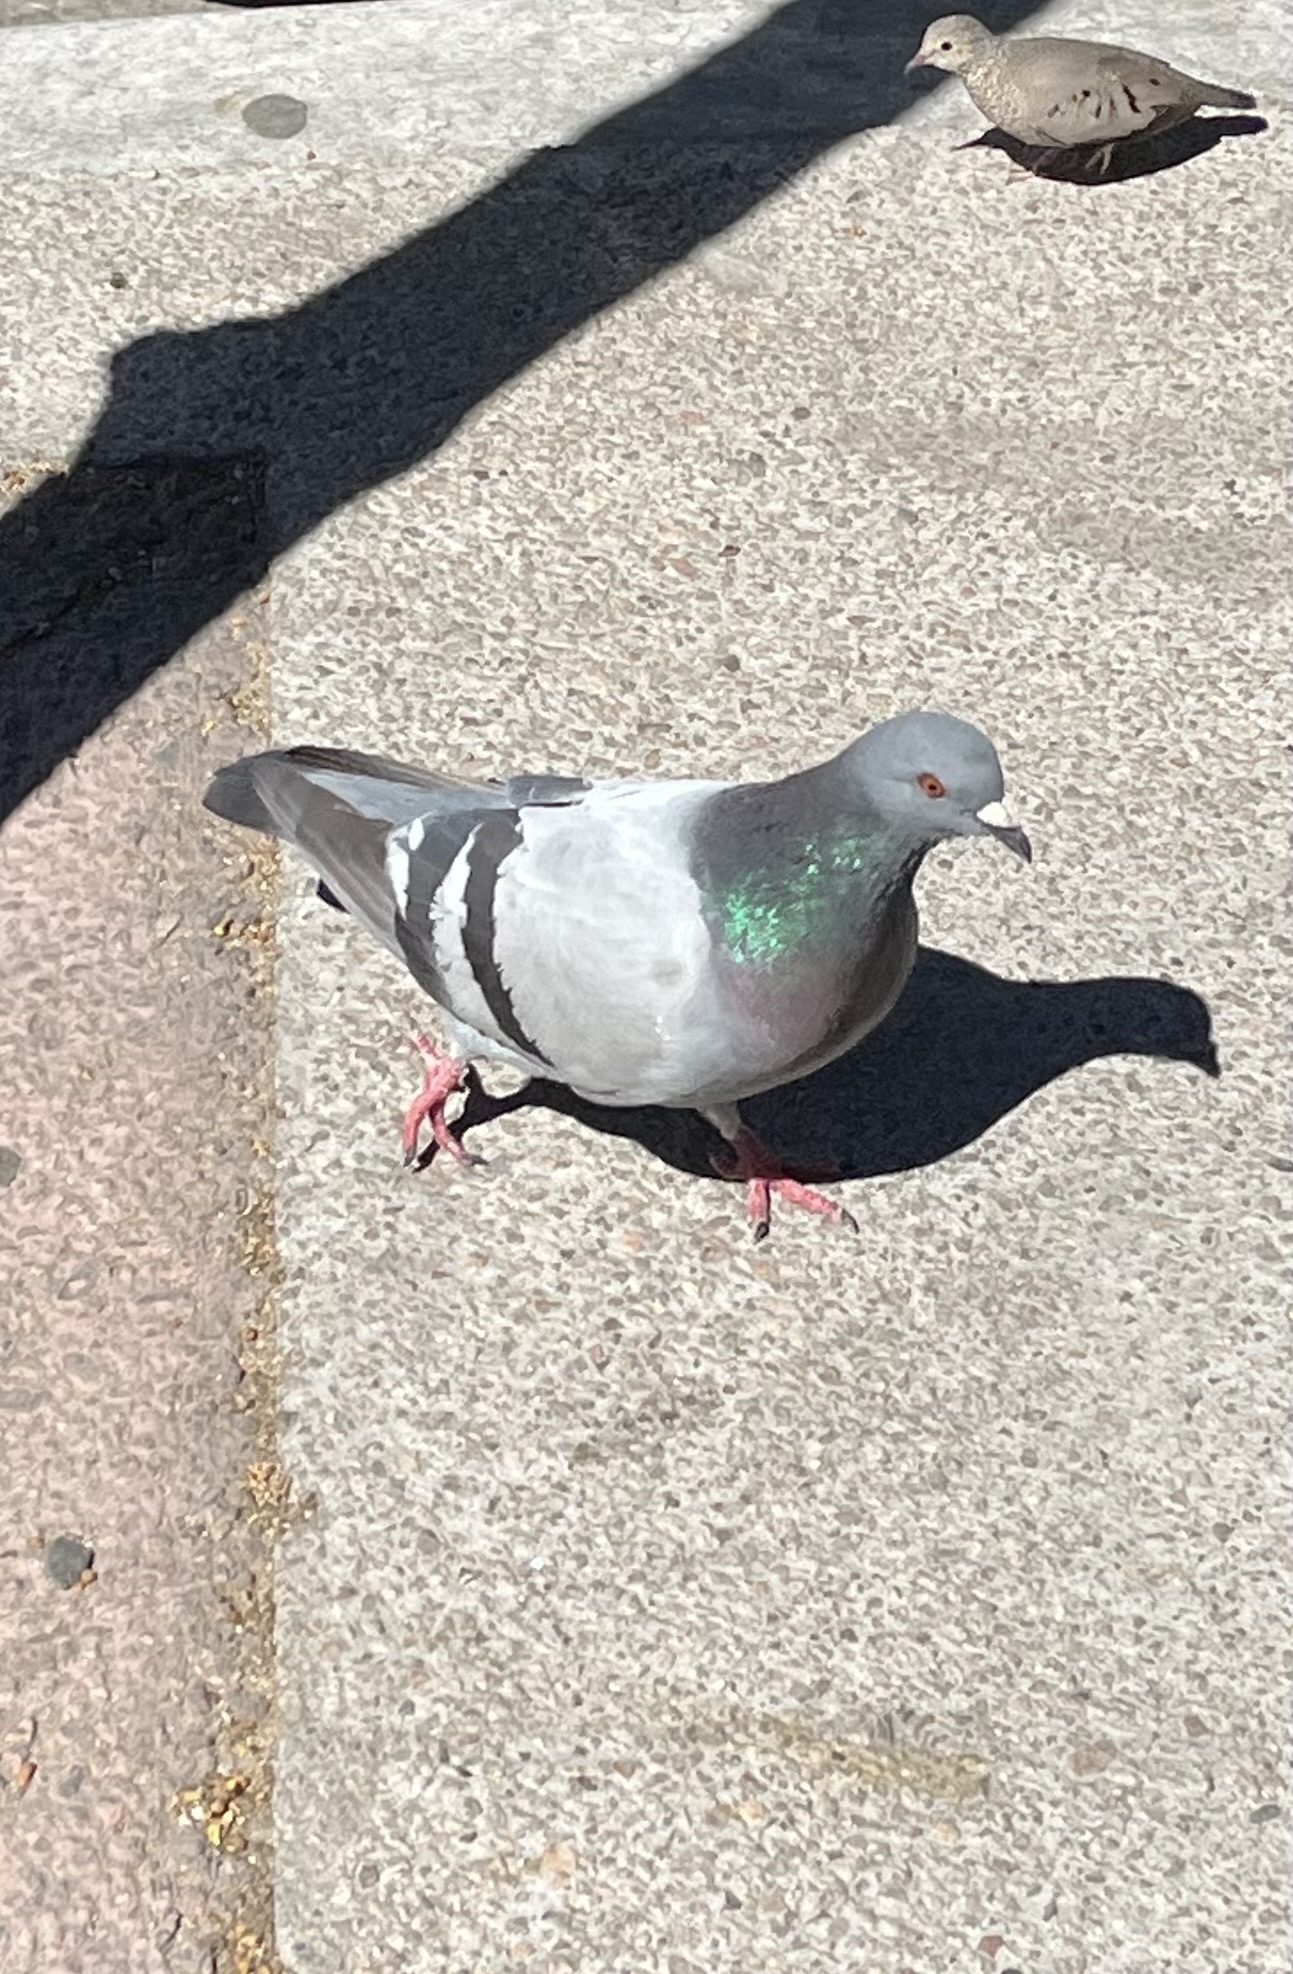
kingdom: Animalia
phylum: Chordata
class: Aves
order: Columbiformes
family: Columbidae
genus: Columba
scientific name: Columba livia
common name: Rock pigeon
